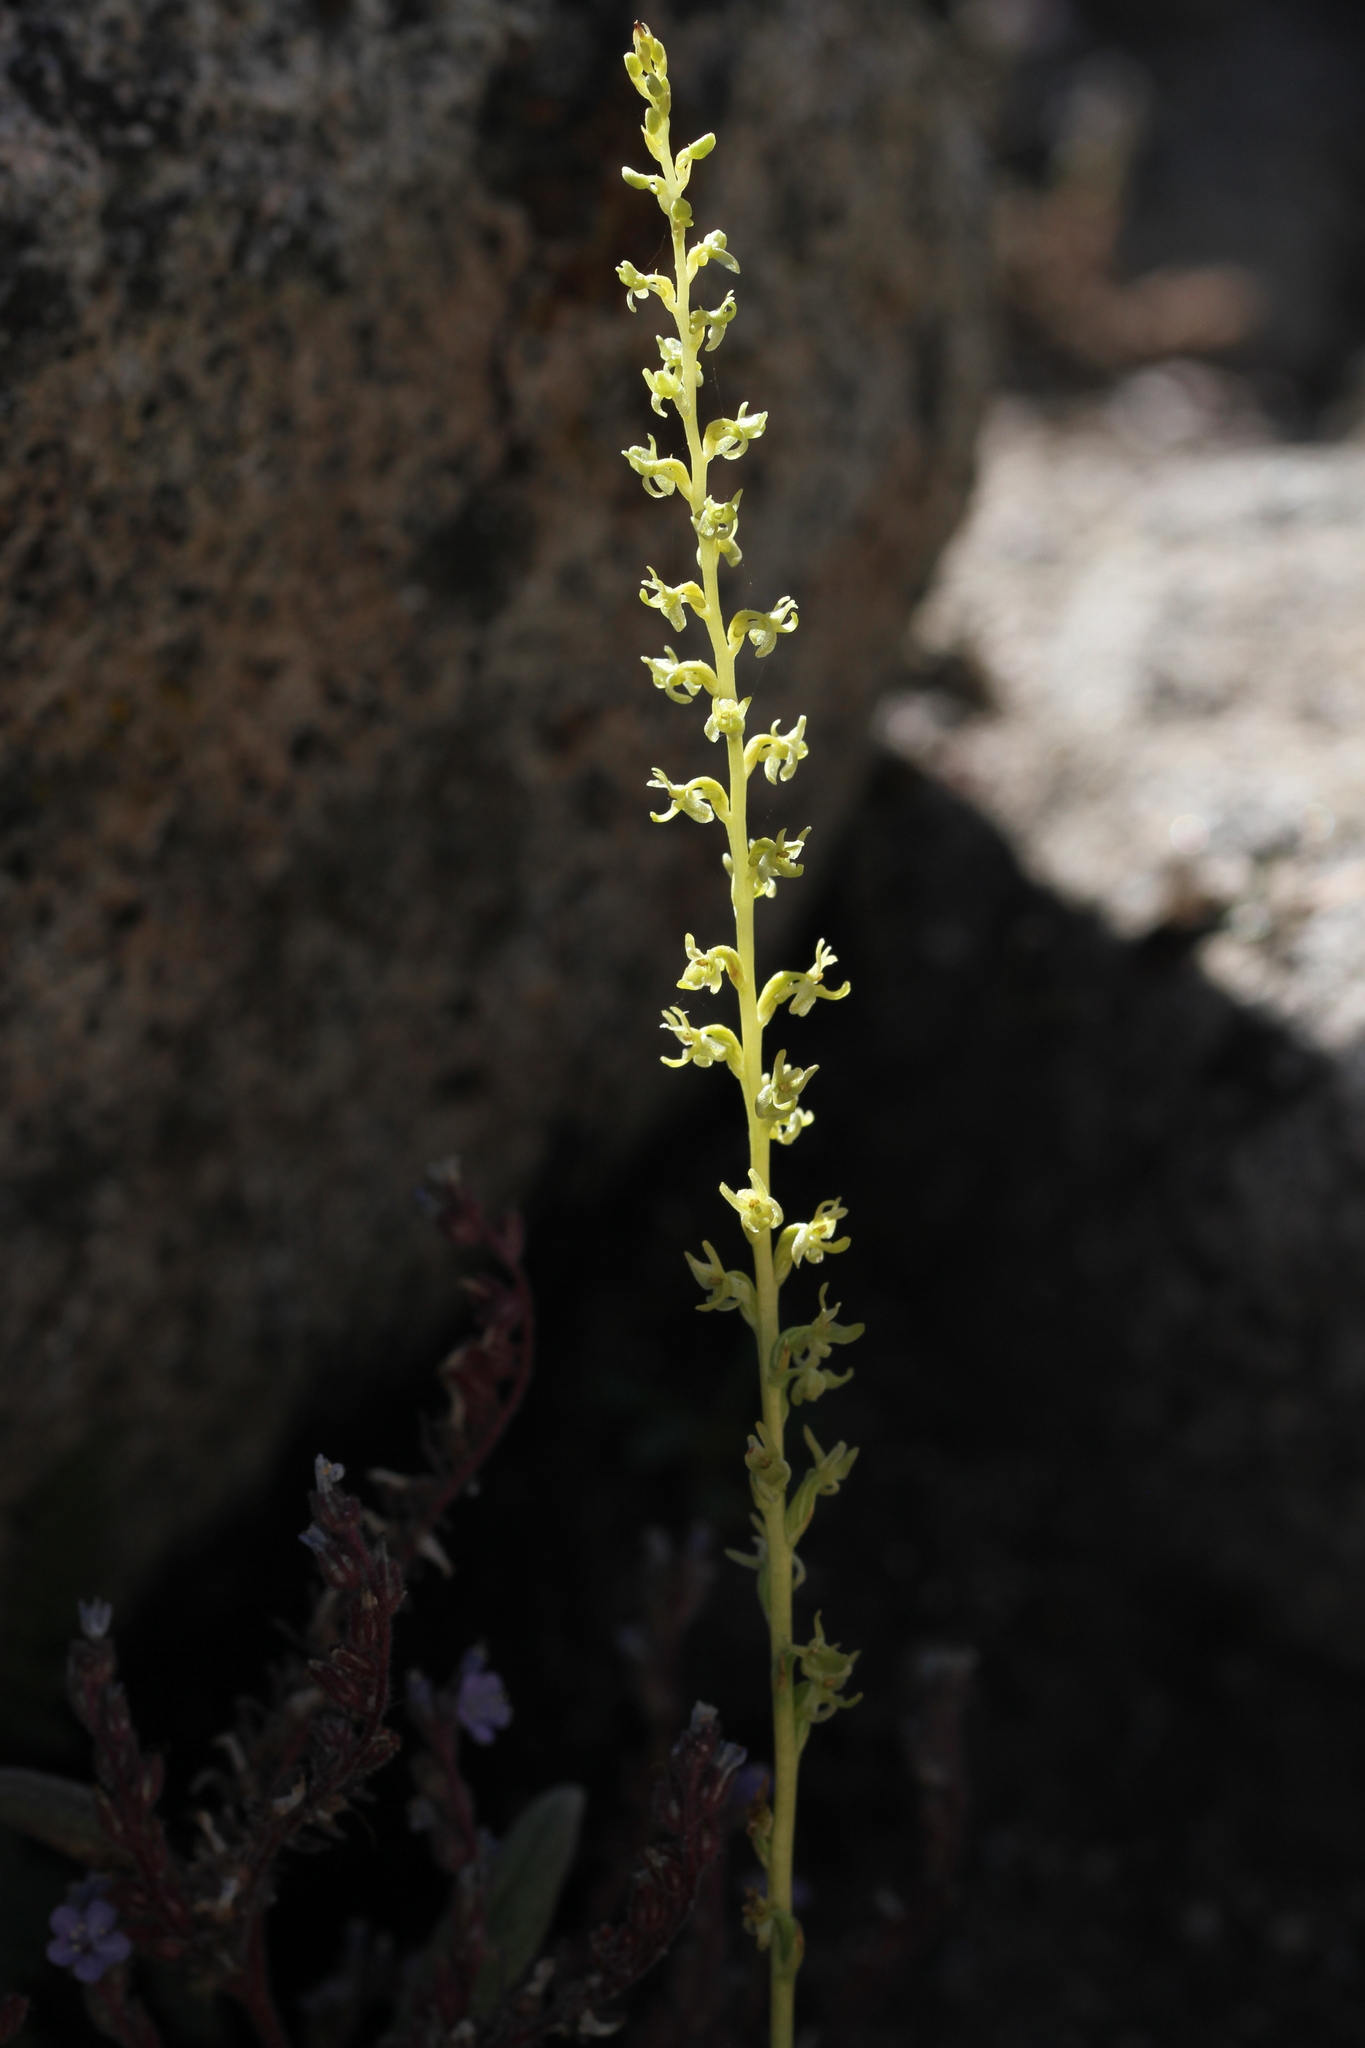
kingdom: Plantae
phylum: Tracheophyta
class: Liliopsida
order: Asparagales
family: Orchidaceae
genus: Platanthera
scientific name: Platanthera colemanii
